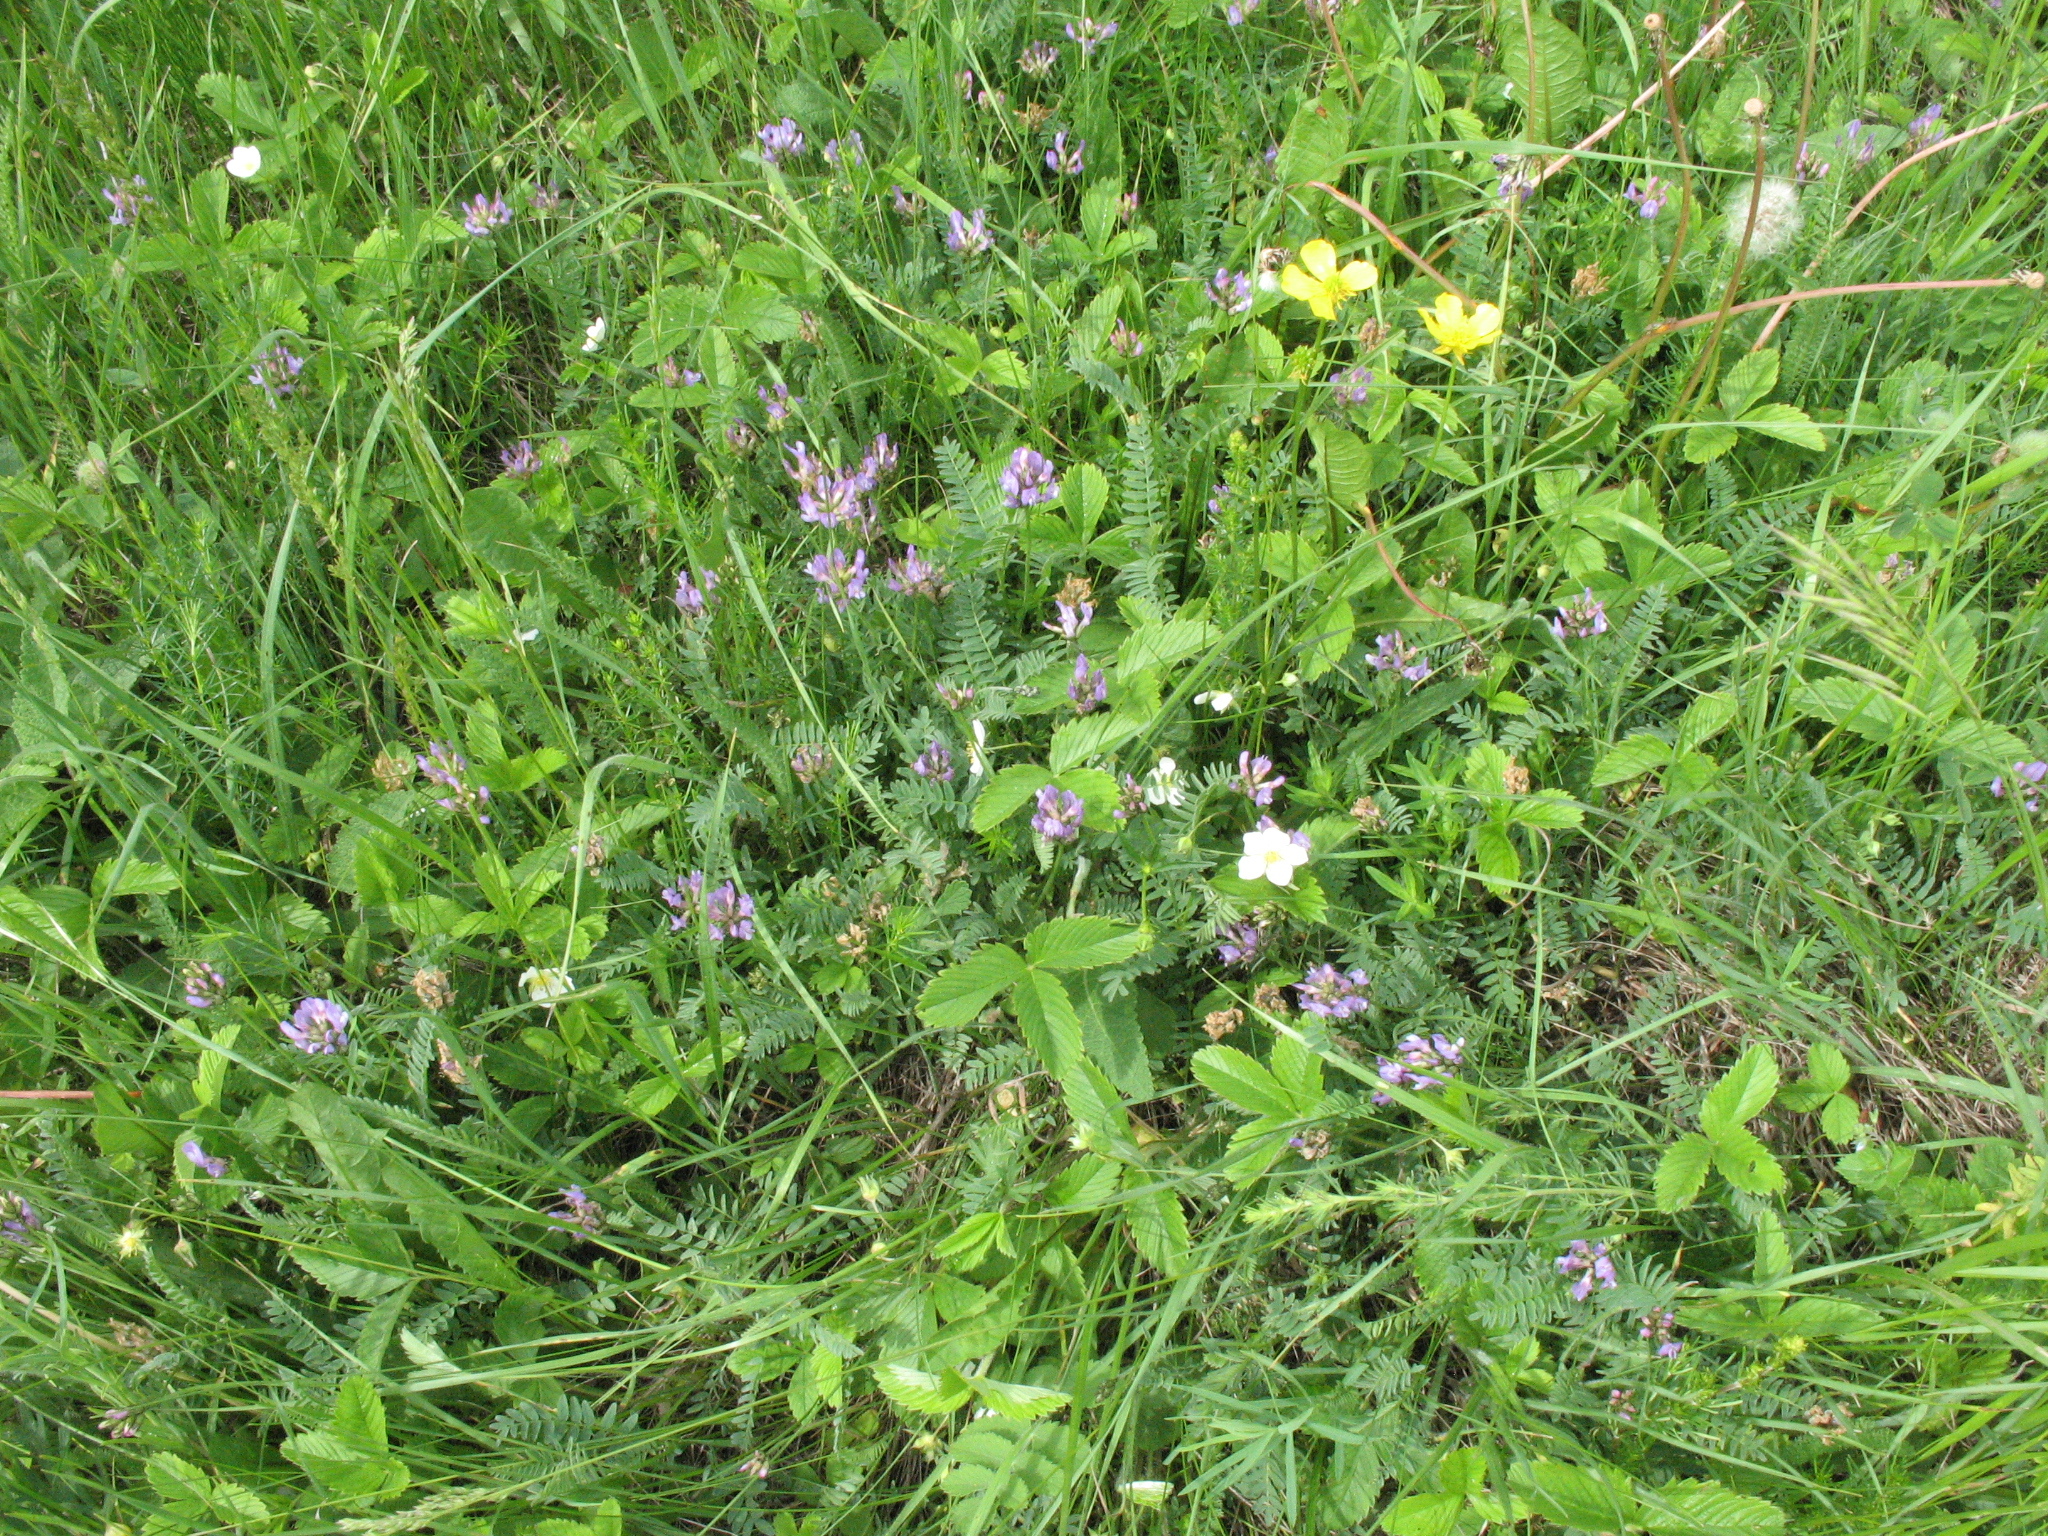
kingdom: Plantae
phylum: Tracheophyta
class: Magnoliopsida
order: Fabales
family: Fabaceae
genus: Astragalus
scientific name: Astragalus danicus
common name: Purple milk-vetch
